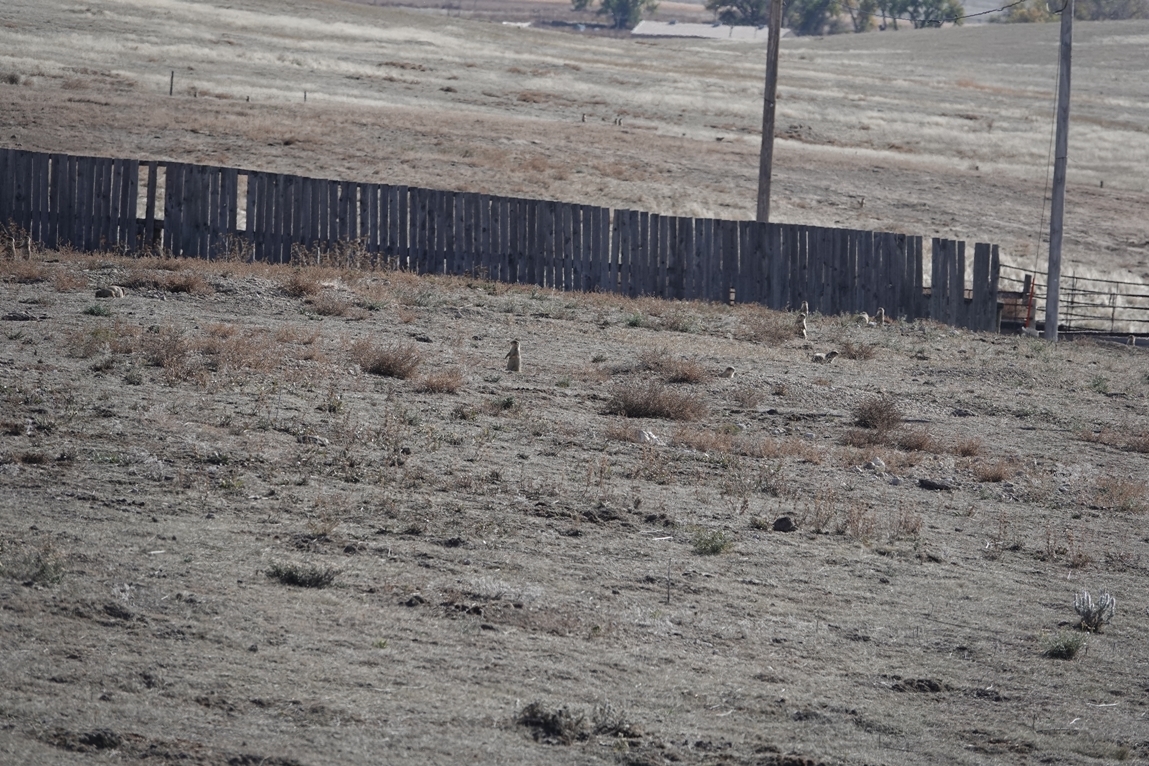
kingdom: Animalia
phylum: Chordata
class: Mammalia
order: Rodentia
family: Sciuridae
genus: Cynomys
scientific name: Cynomys ludovicianus
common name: Black-tailed prairie dog
